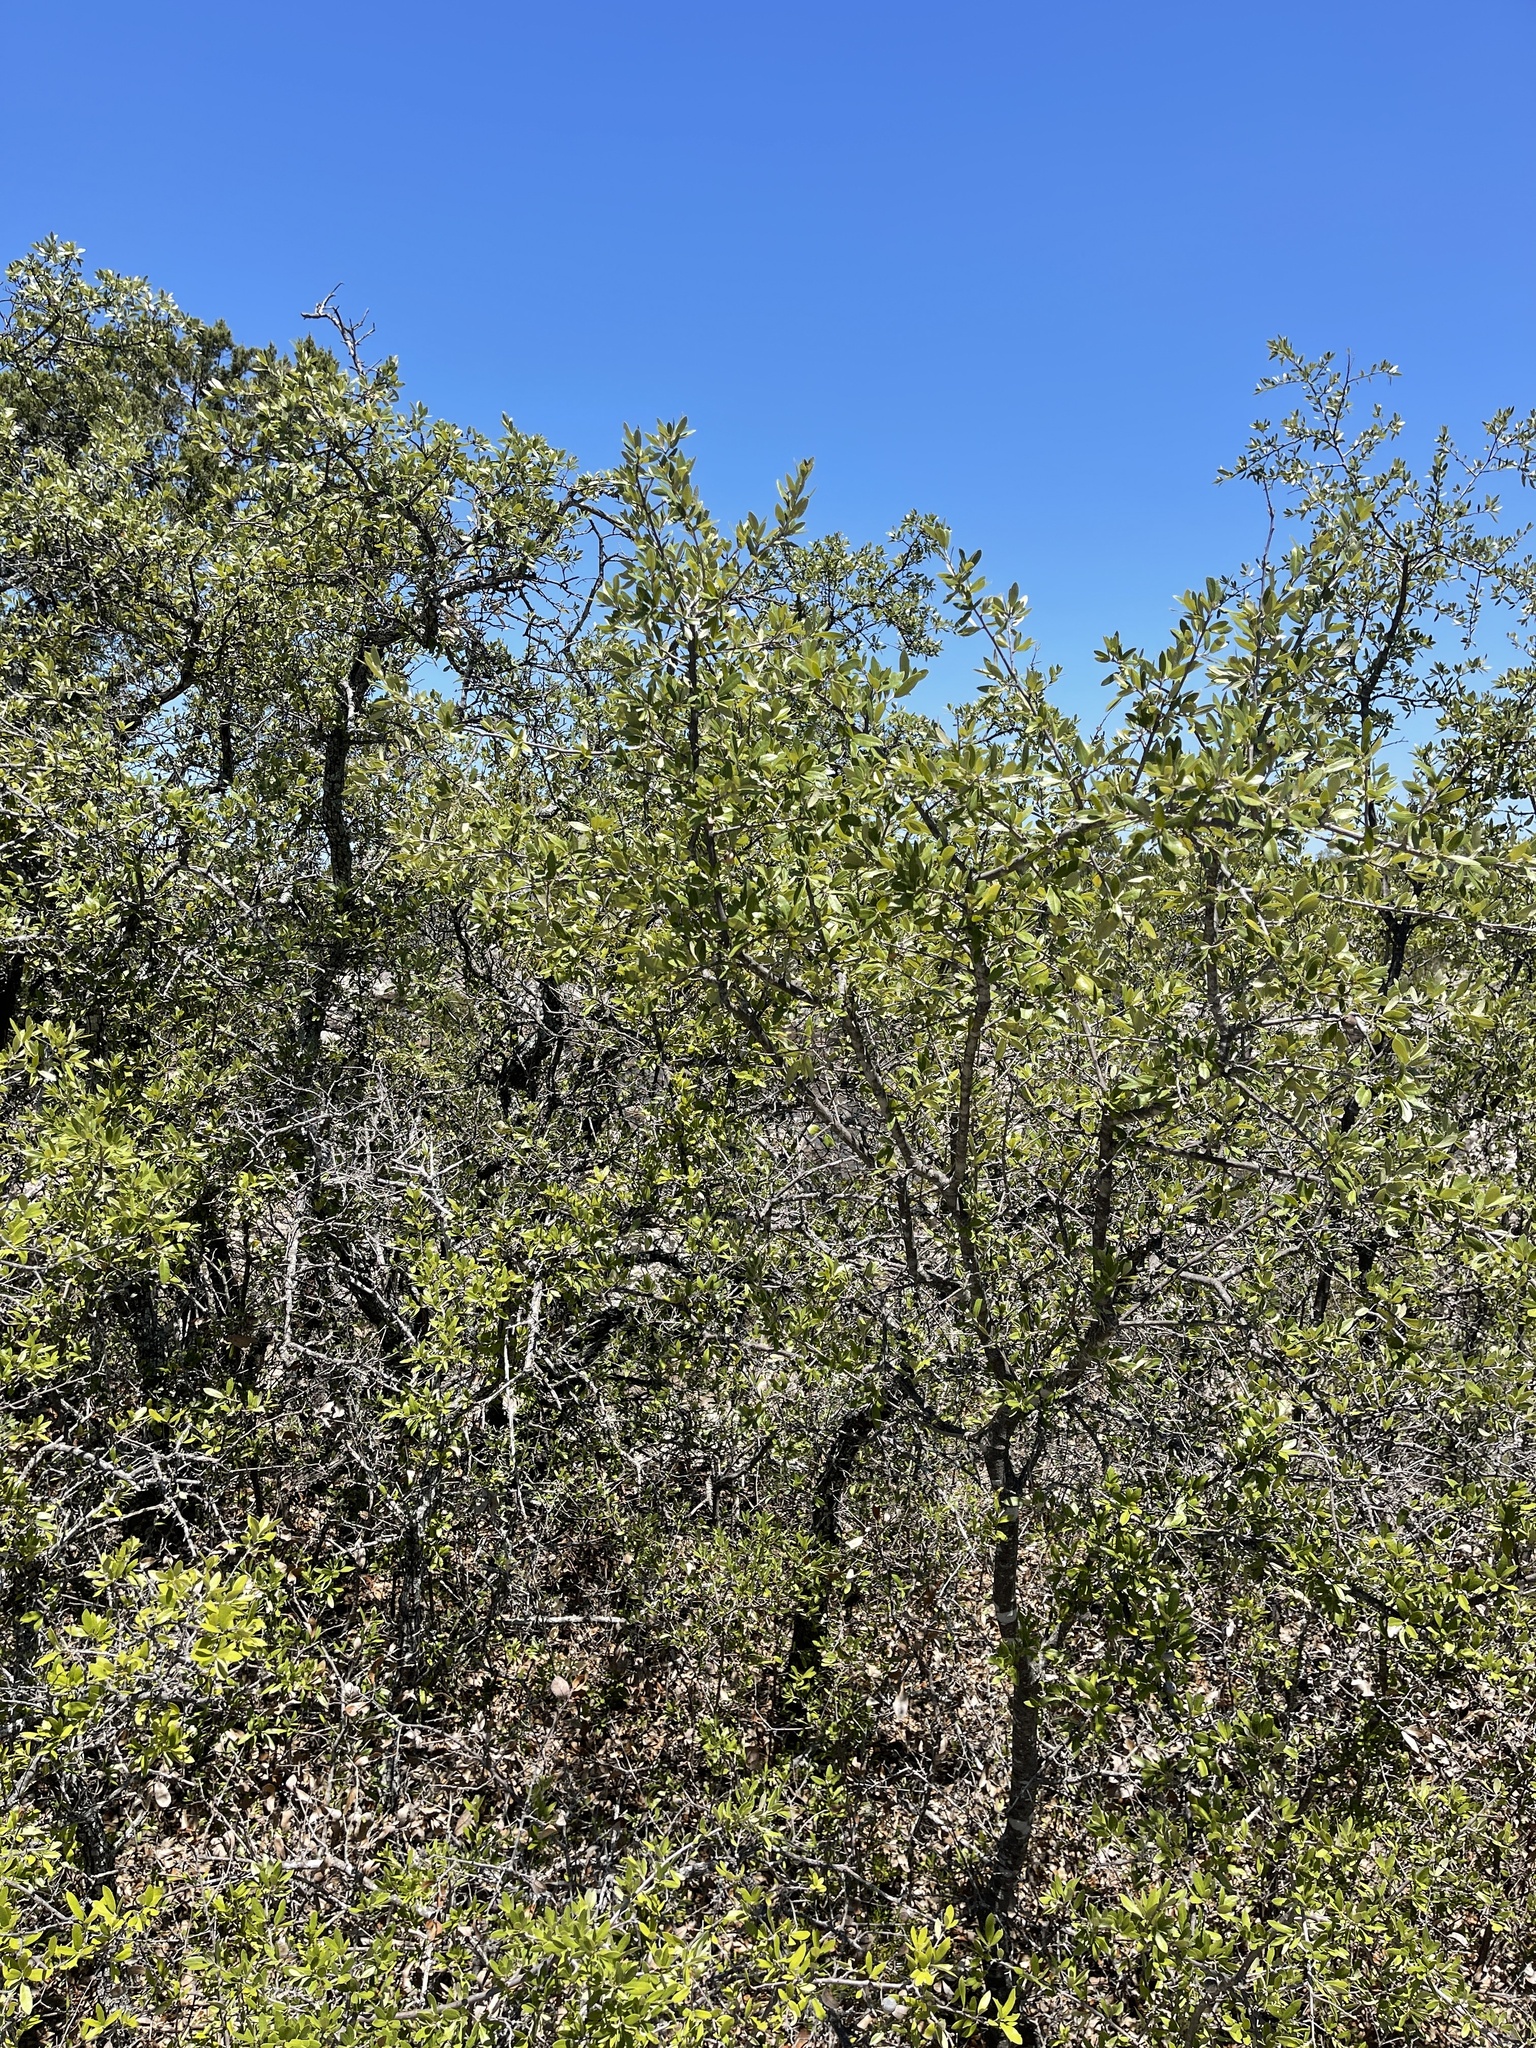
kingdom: Plantae
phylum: Tracheophyta
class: Magnoliopsida
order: Fagales
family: Fagaceae
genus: Quercus
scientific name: Quercus fusiformis
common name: Texas live oak
